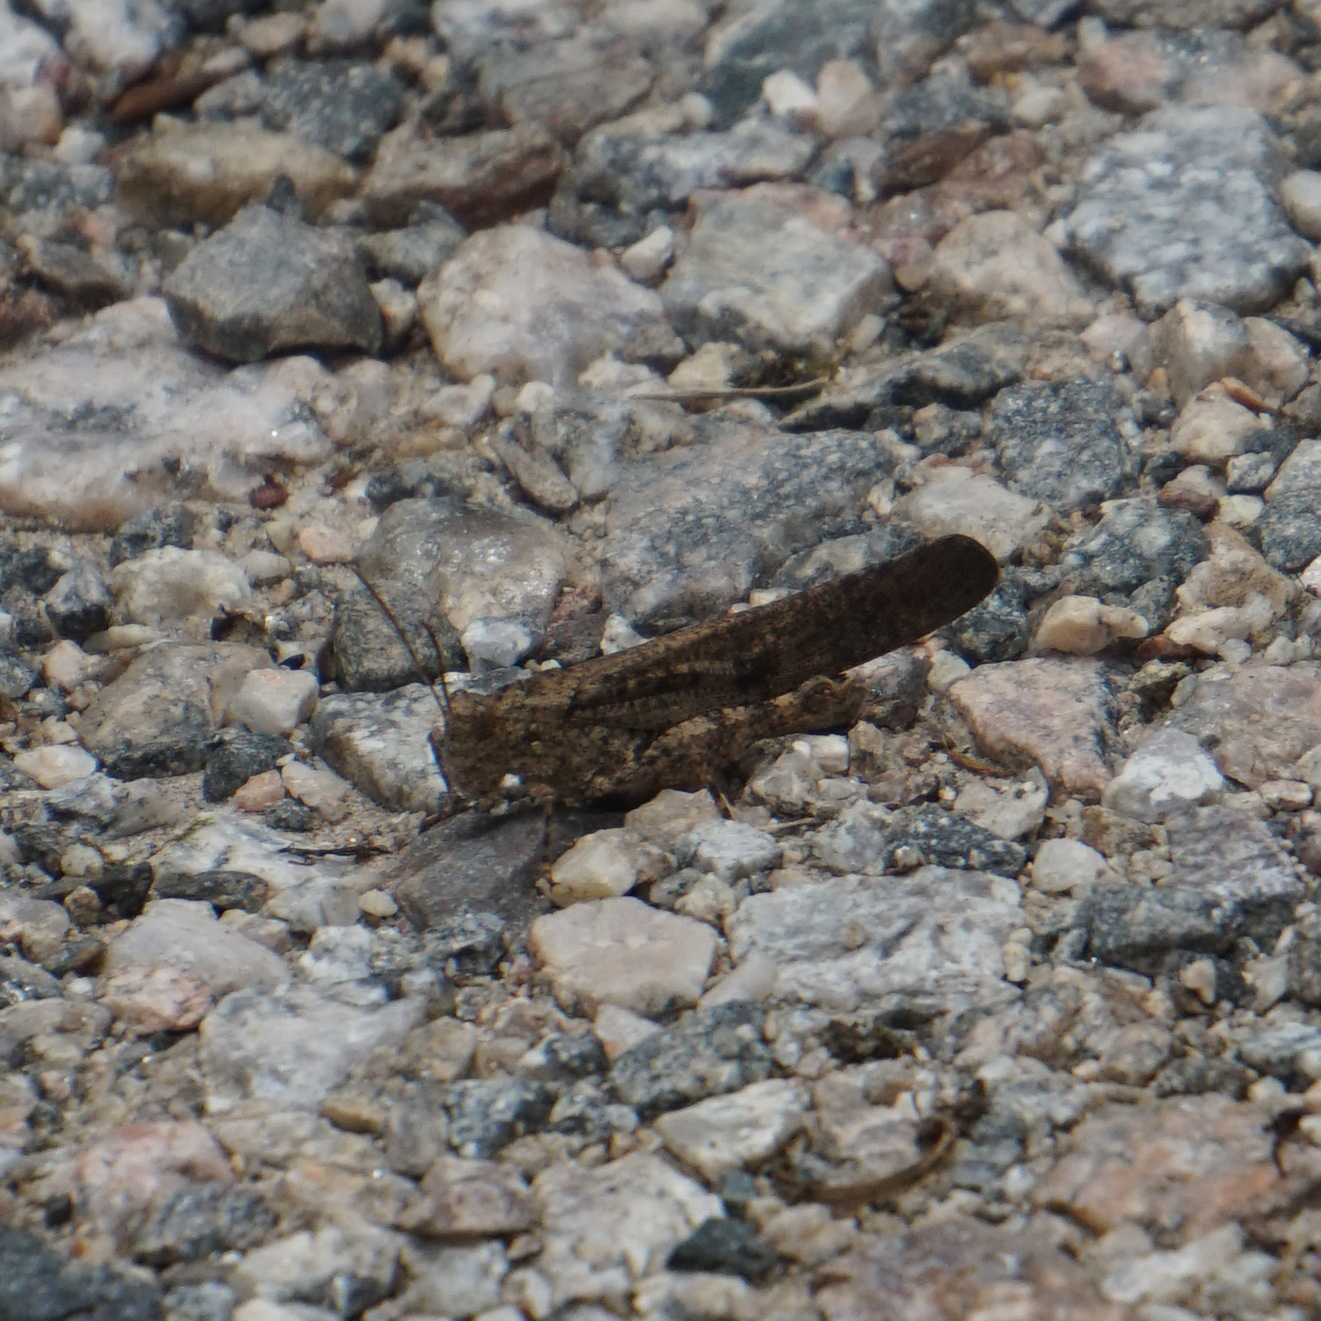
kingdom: Animalia
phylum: Arthropoda
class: Insecta
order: Orthoptera
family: Acrididae
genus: Dissosteira
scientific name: Dissosteira carolina
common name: Carolina grasshopper
